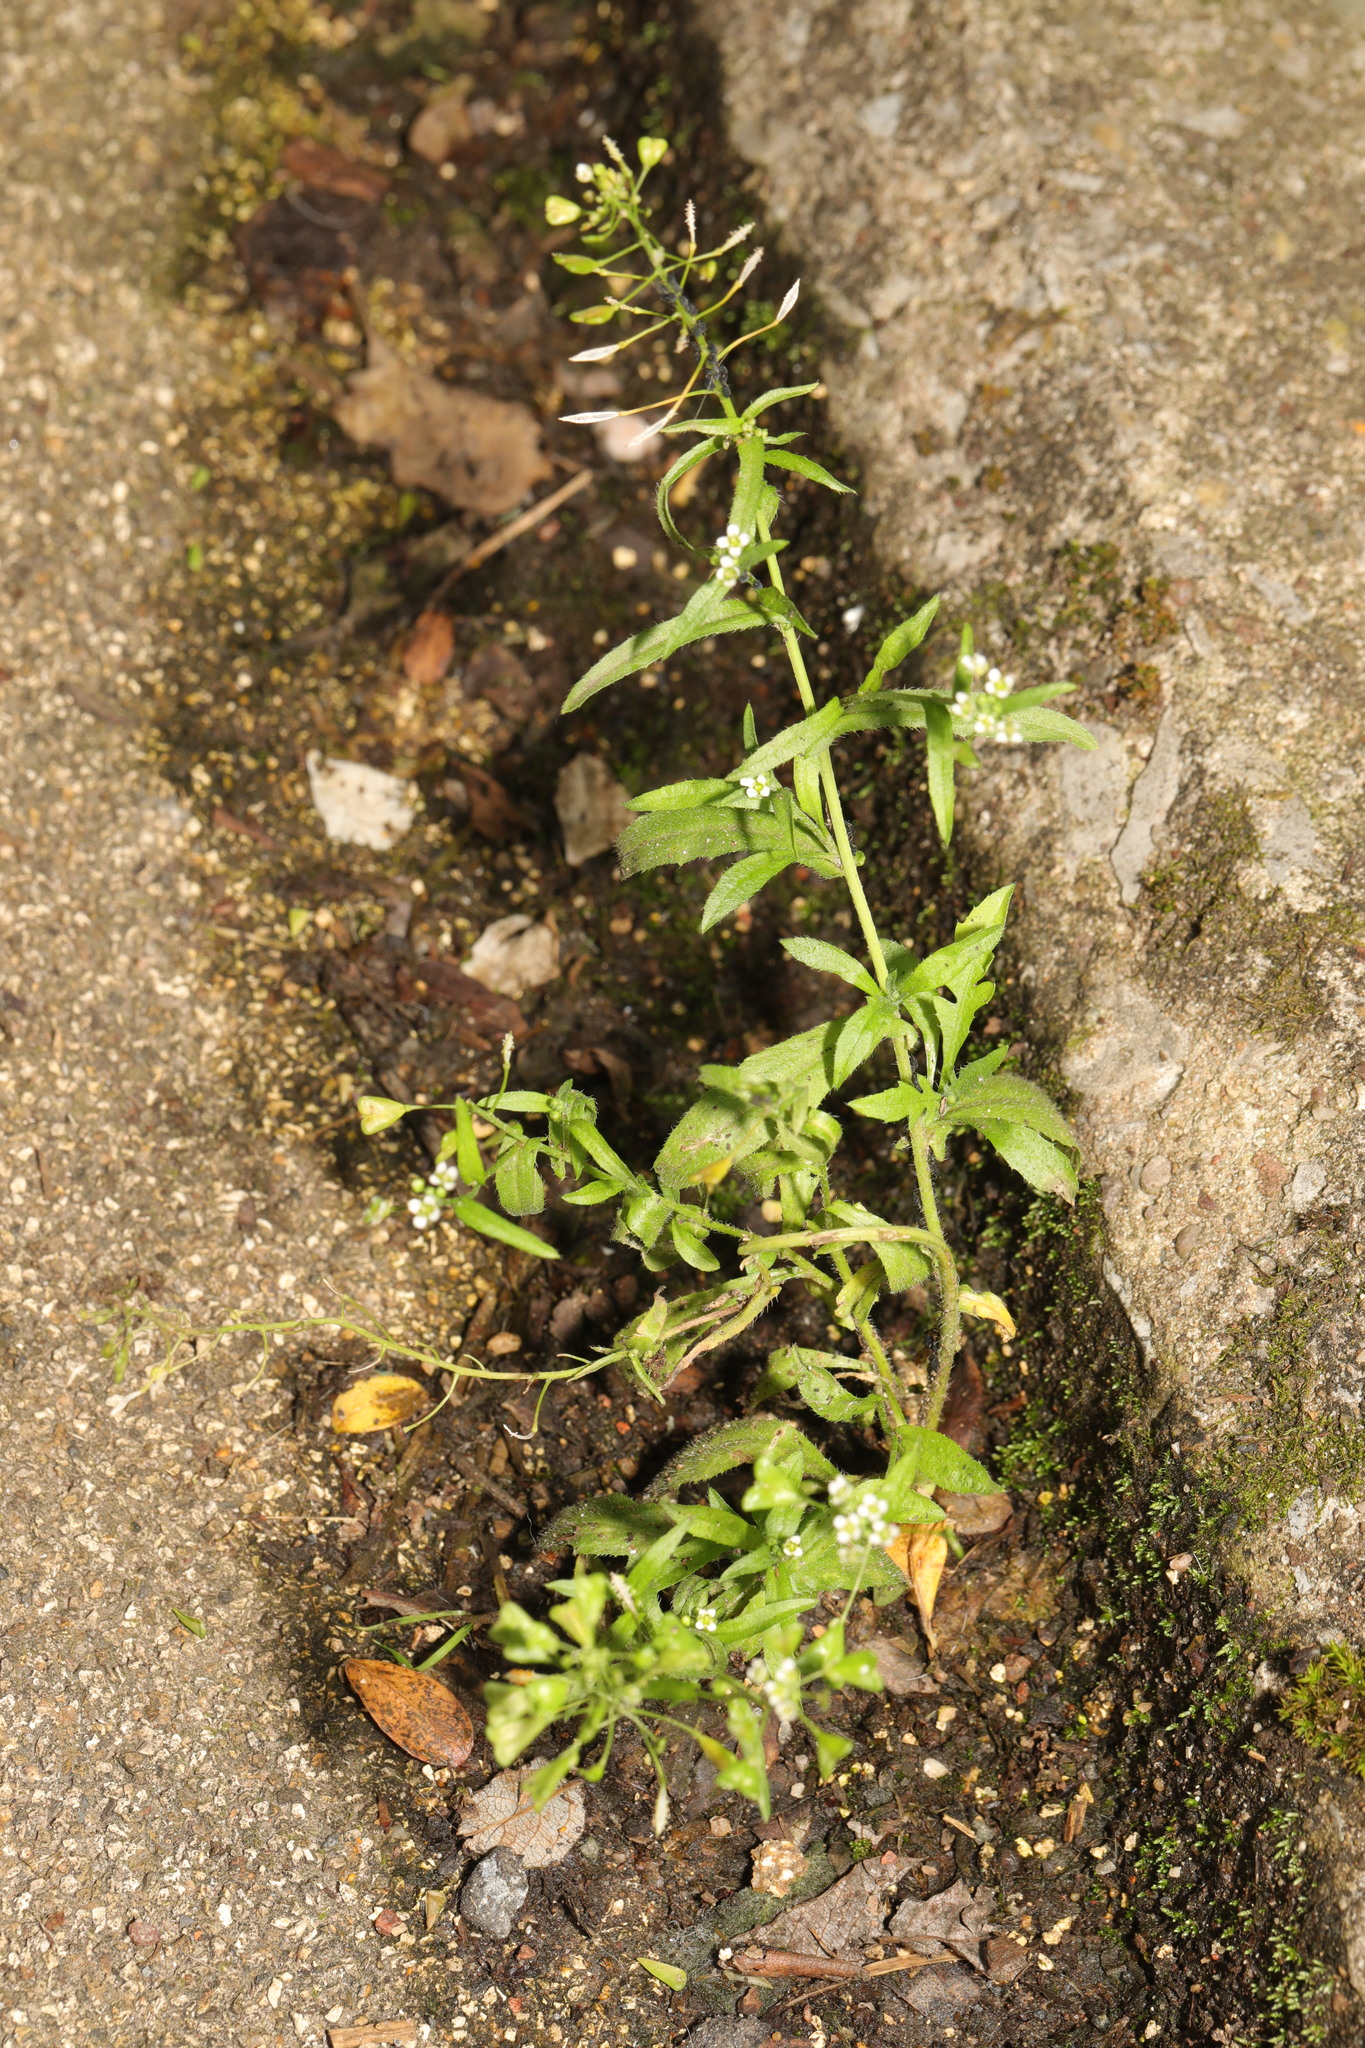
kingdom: Plantae
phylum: Tracheophyta
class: Magnoliopsida
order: Brassicales
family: Brassicaceae
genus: Capsella
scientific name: Capsella bursa-pastoris
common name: Shepherd's purse
